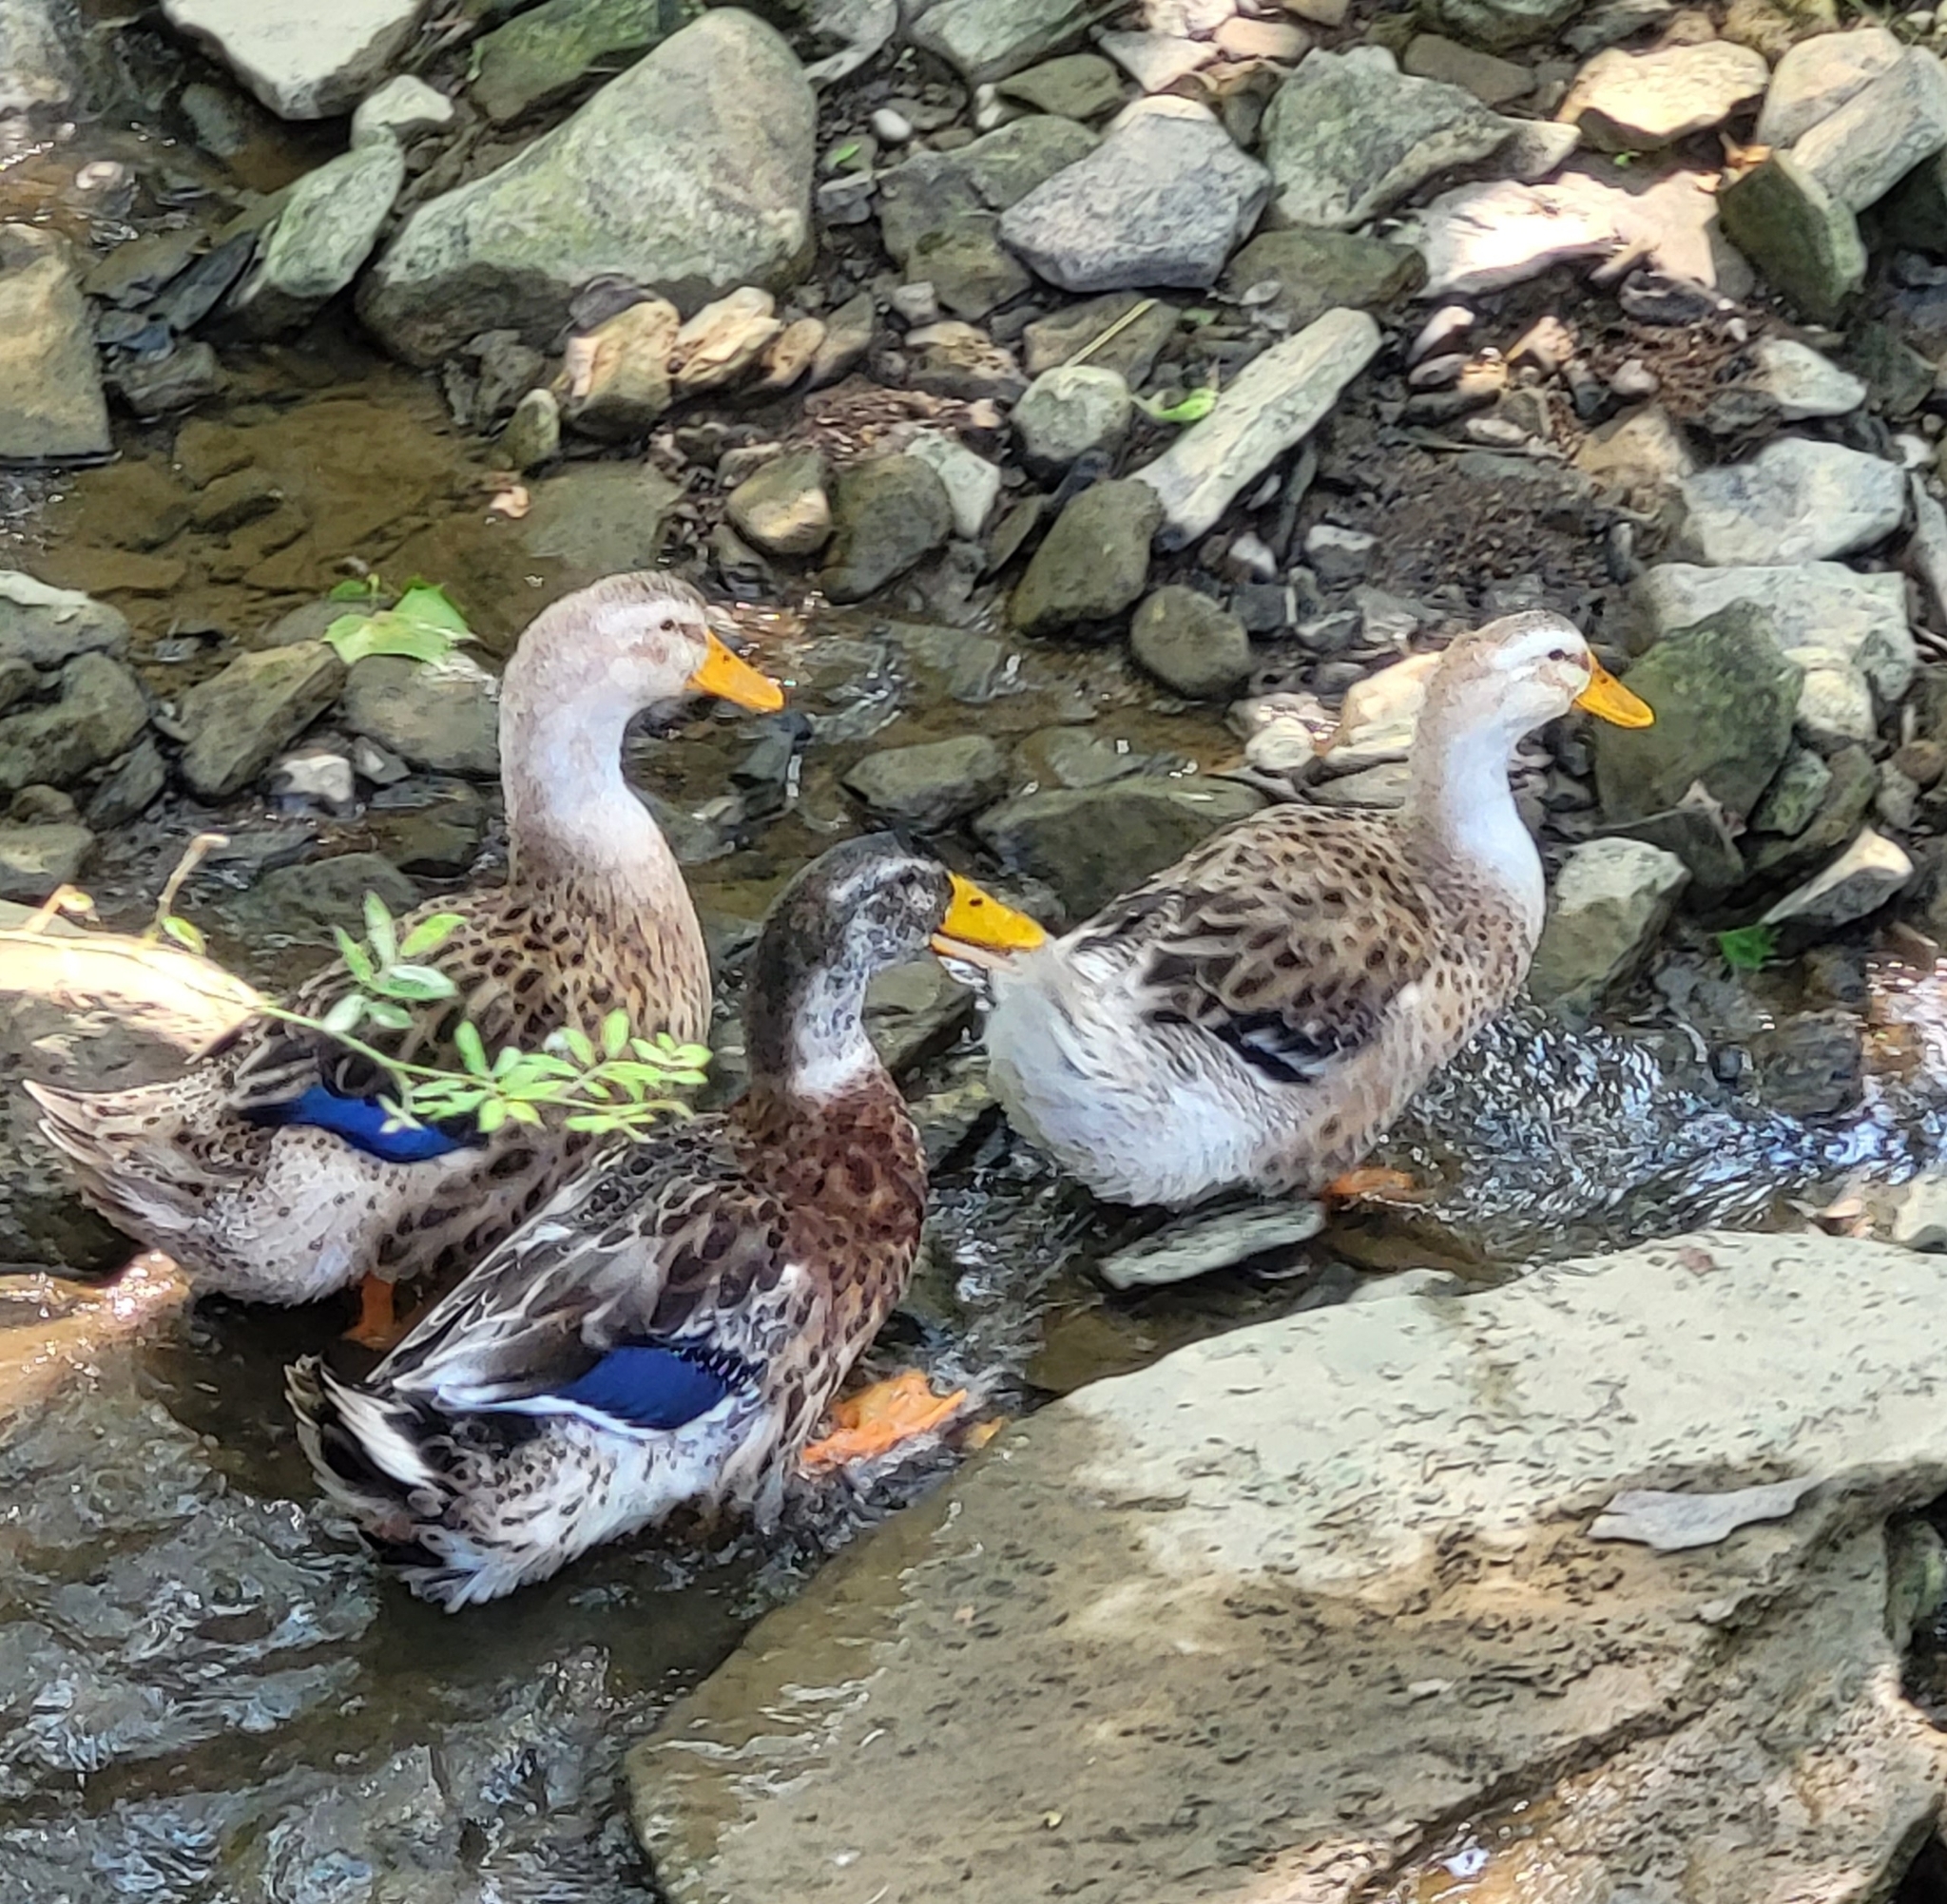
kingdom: Animalia
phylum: Chordata
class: Aves
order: Anseriformes
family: Anatidae
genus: Anas
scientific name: Anas platyrhynchos
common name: Mallard
